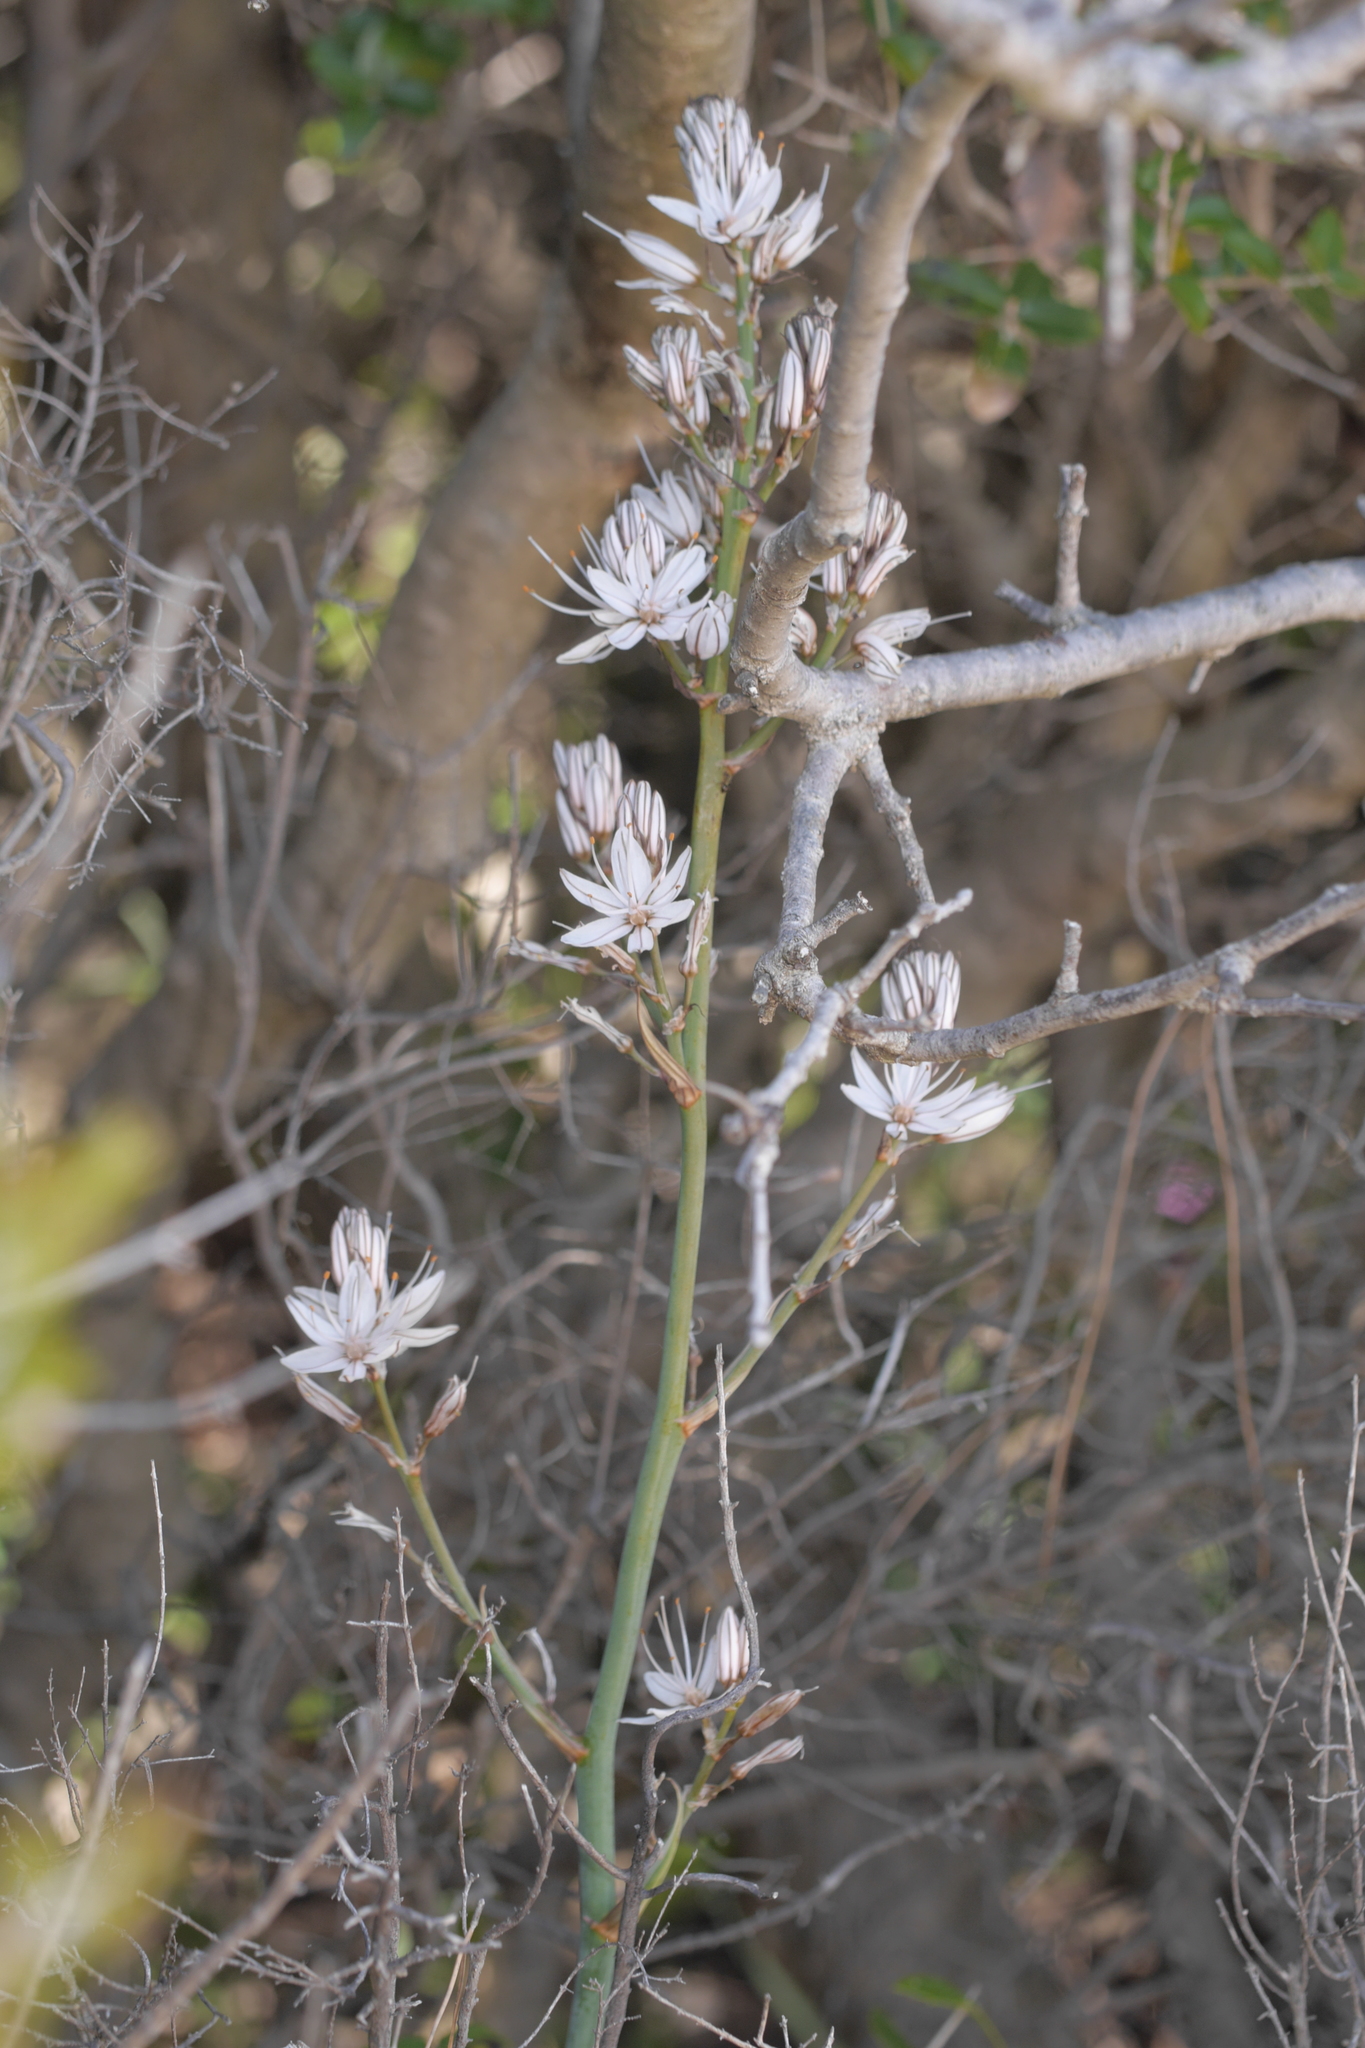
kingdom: Plantae
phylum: Tracheophyta
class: Liliopsida
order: Asparagales
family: Asphodelaceae
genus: Asphodelus
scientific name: Asphodelus ramosus
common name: Silverrod
